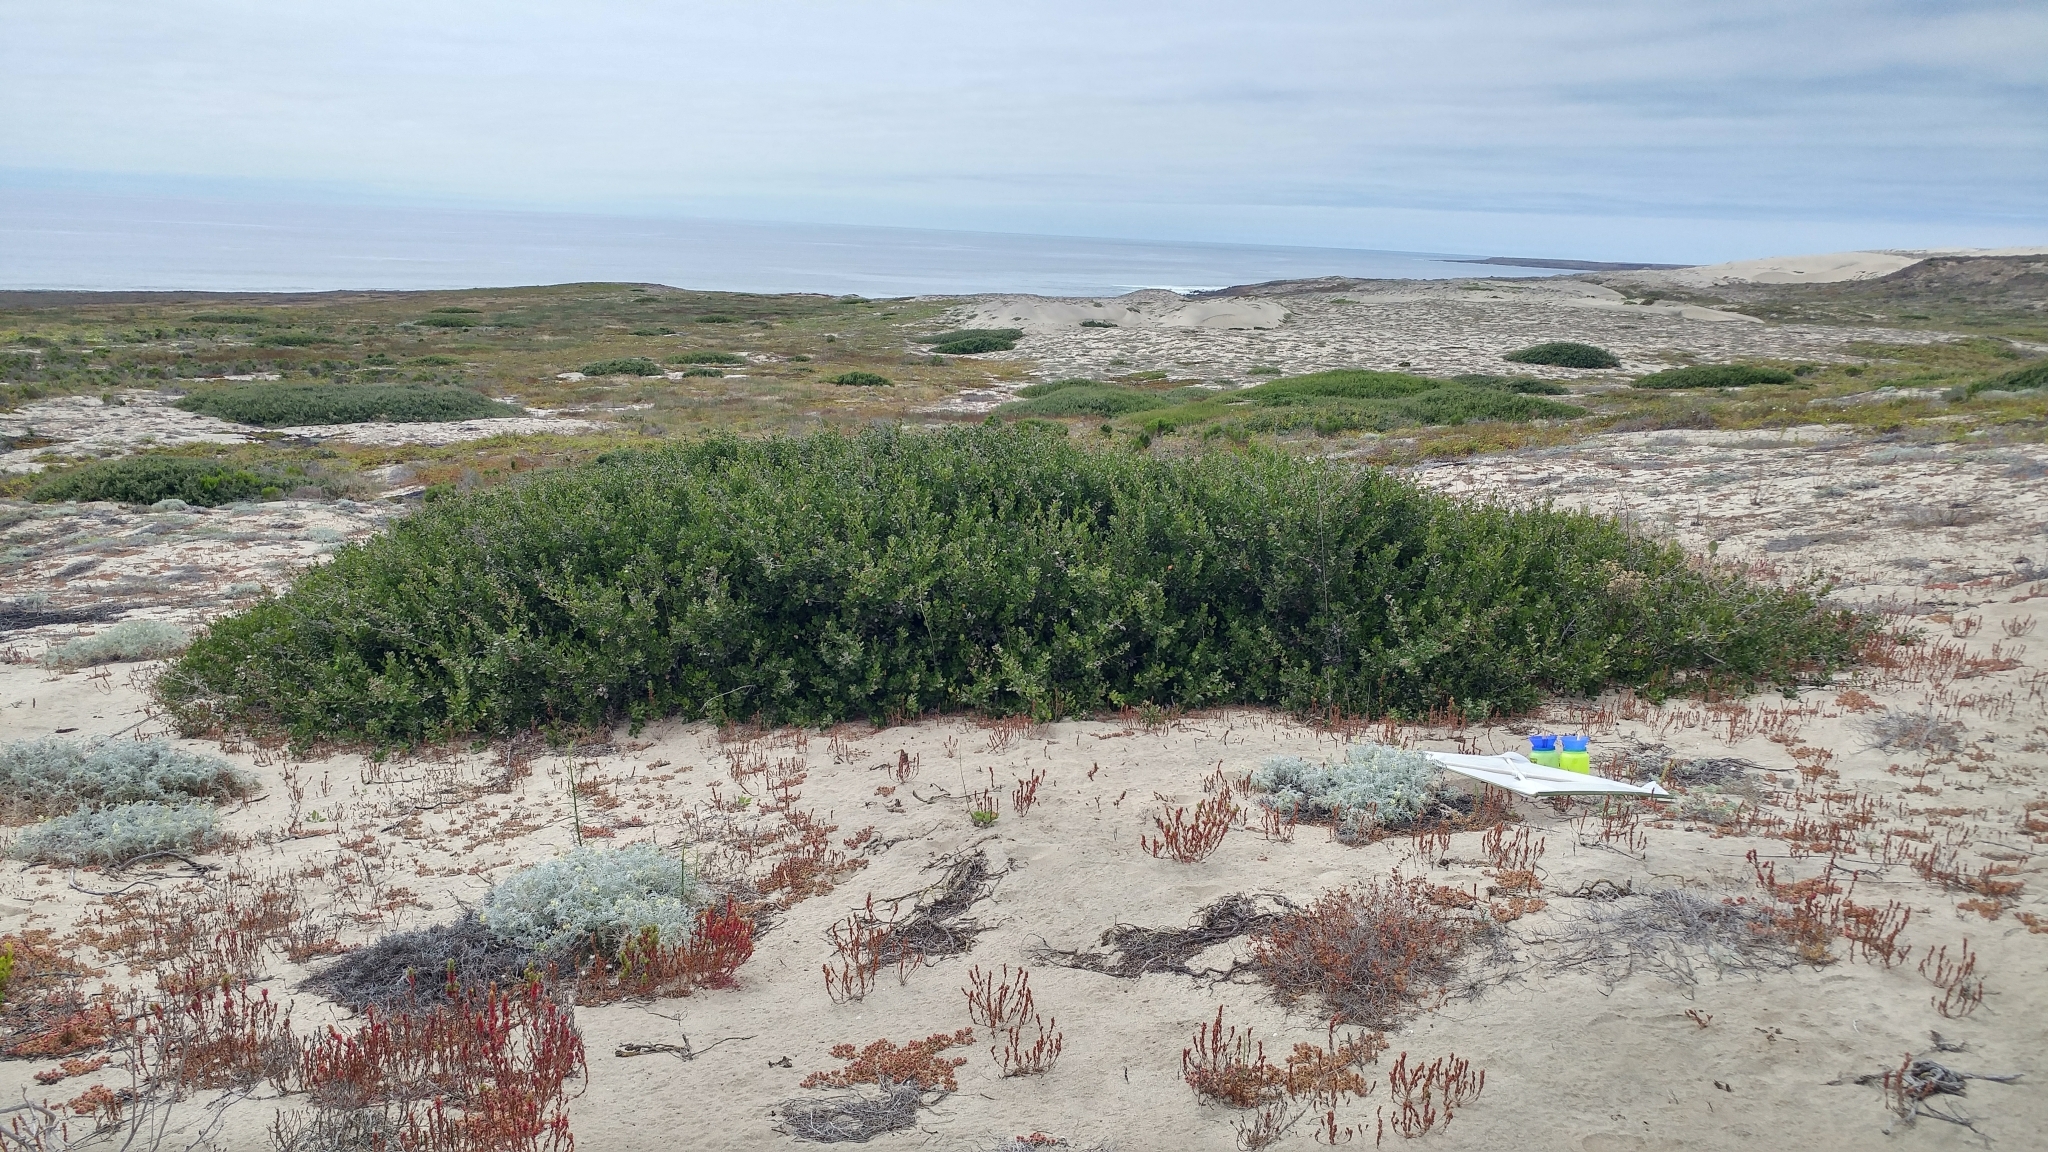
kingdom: Plantae
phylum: Tracheophyta
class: Magnoliopsida
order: Sapindales
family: Anacardiaceae
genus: Rhus
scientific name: Rhus integrifolia
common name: Lemonade sumac
